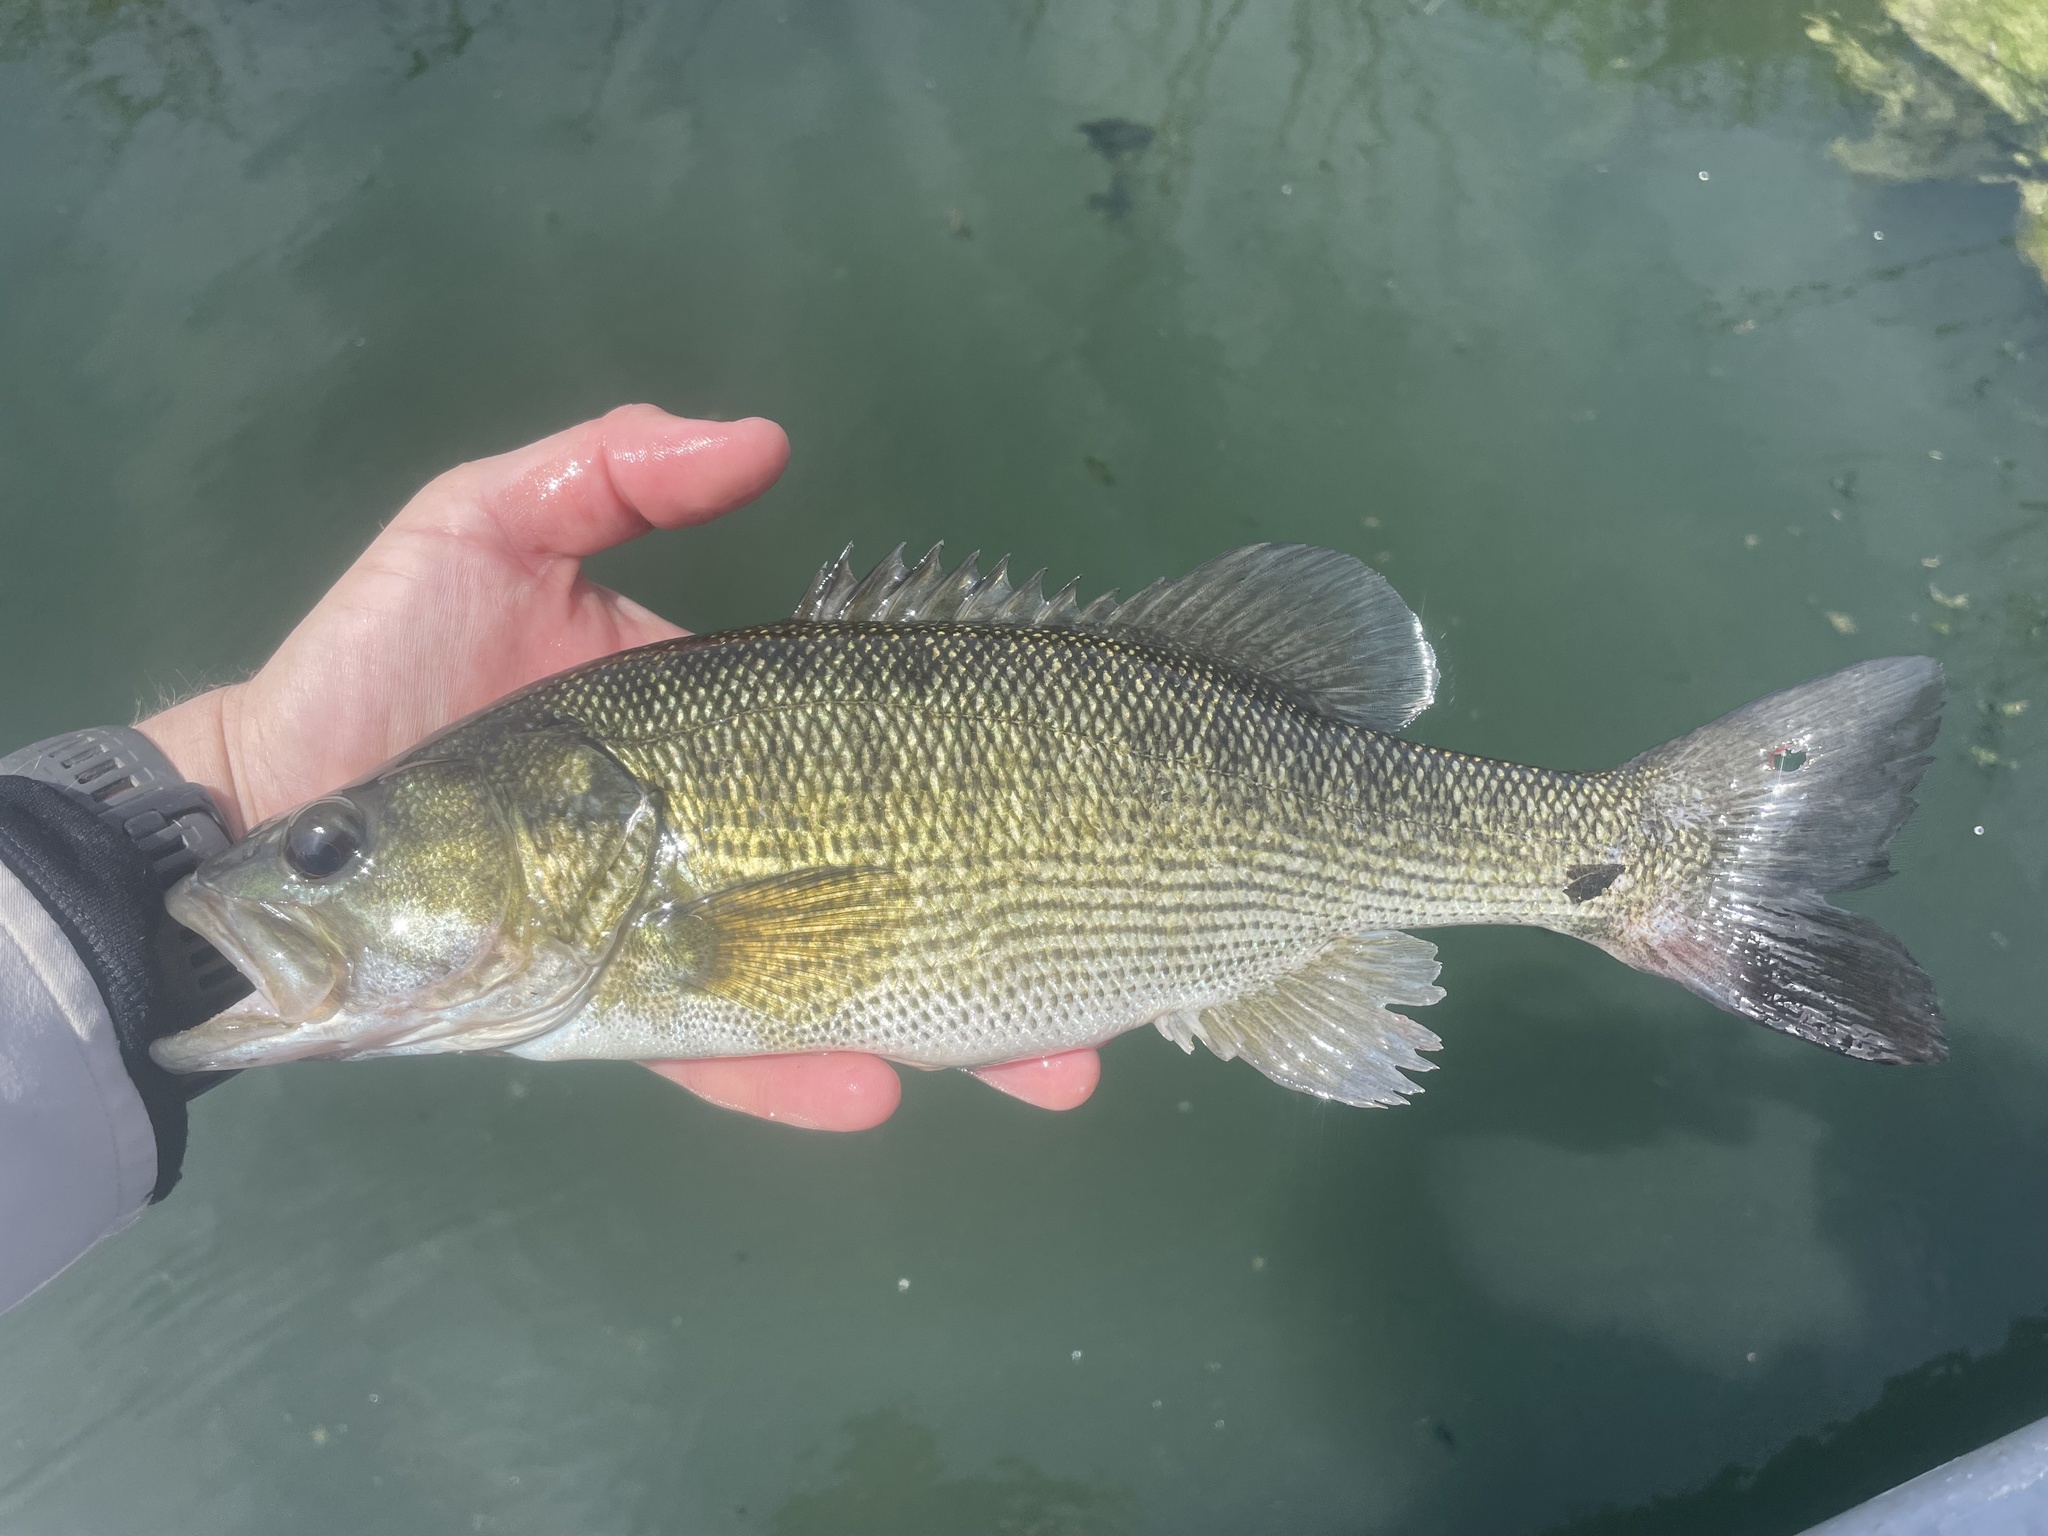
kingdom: Animalia
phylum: Chordata
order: Perciformes
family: Centrarchidae
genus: Micropterus
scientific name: Micropterus treculii
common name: Guadalupe bass
